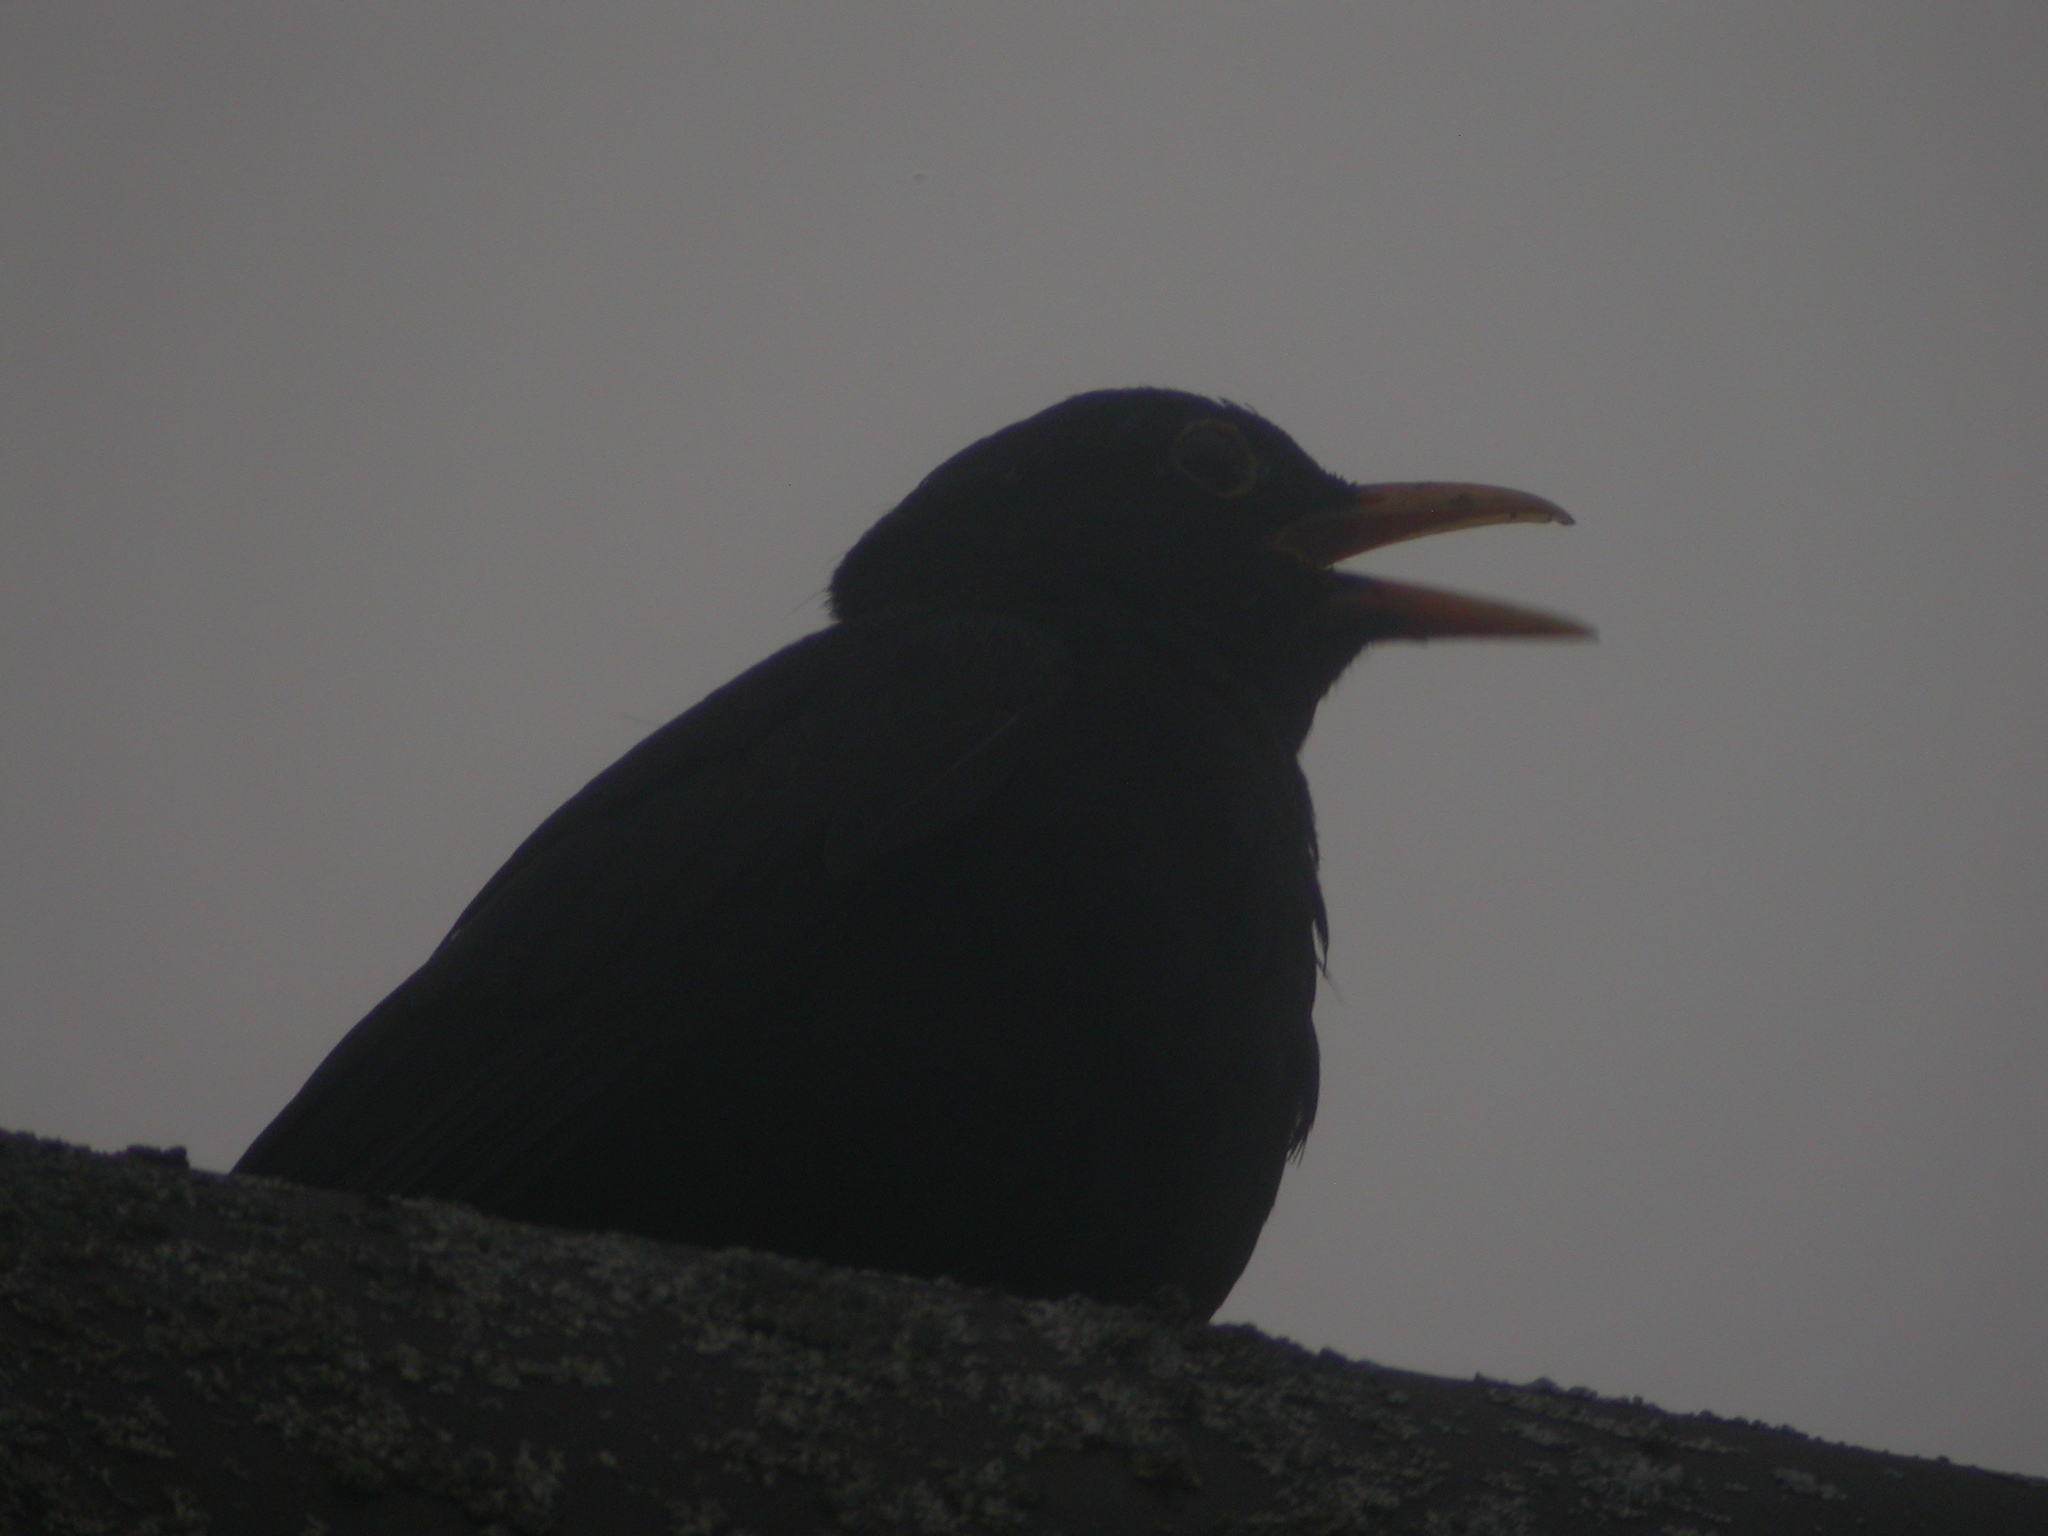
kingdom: Animalia
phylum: Chordata
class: Aves
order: Passeriformes
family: Turdidae
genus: Turdus
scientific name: Turdus merula
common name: Common blackbird
